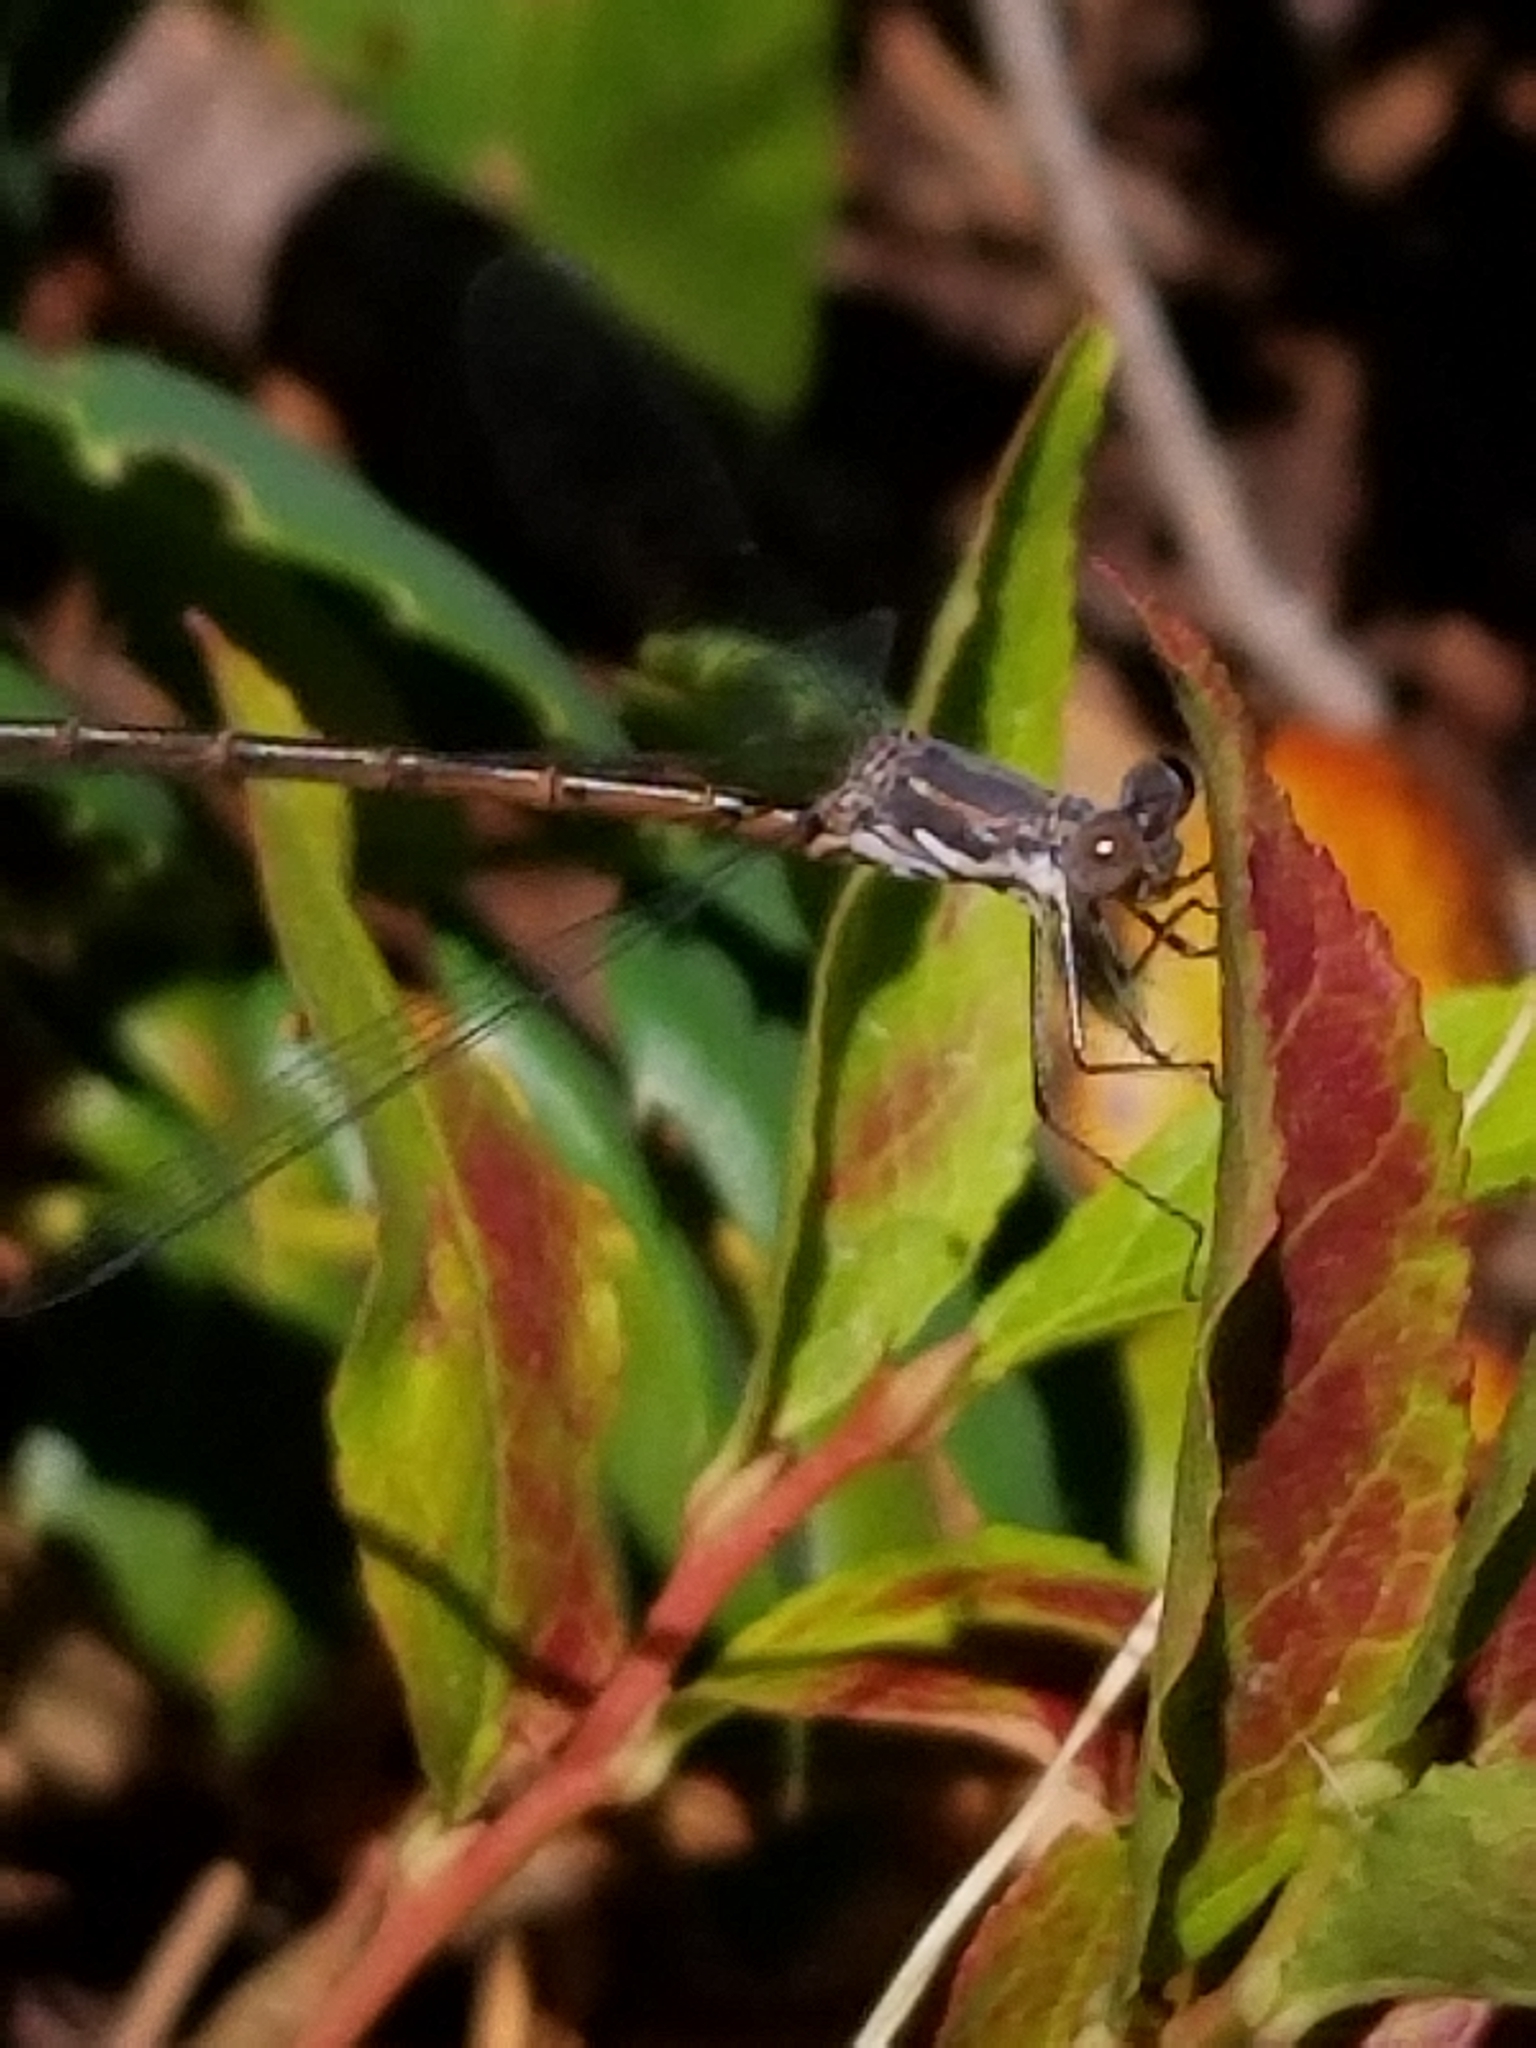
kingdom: Animalia
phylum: Arthropoda
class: Insecta
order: Odonata
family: Lestidae
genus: Lestes
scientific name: Lestes congener
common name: Spotted spreadwing
